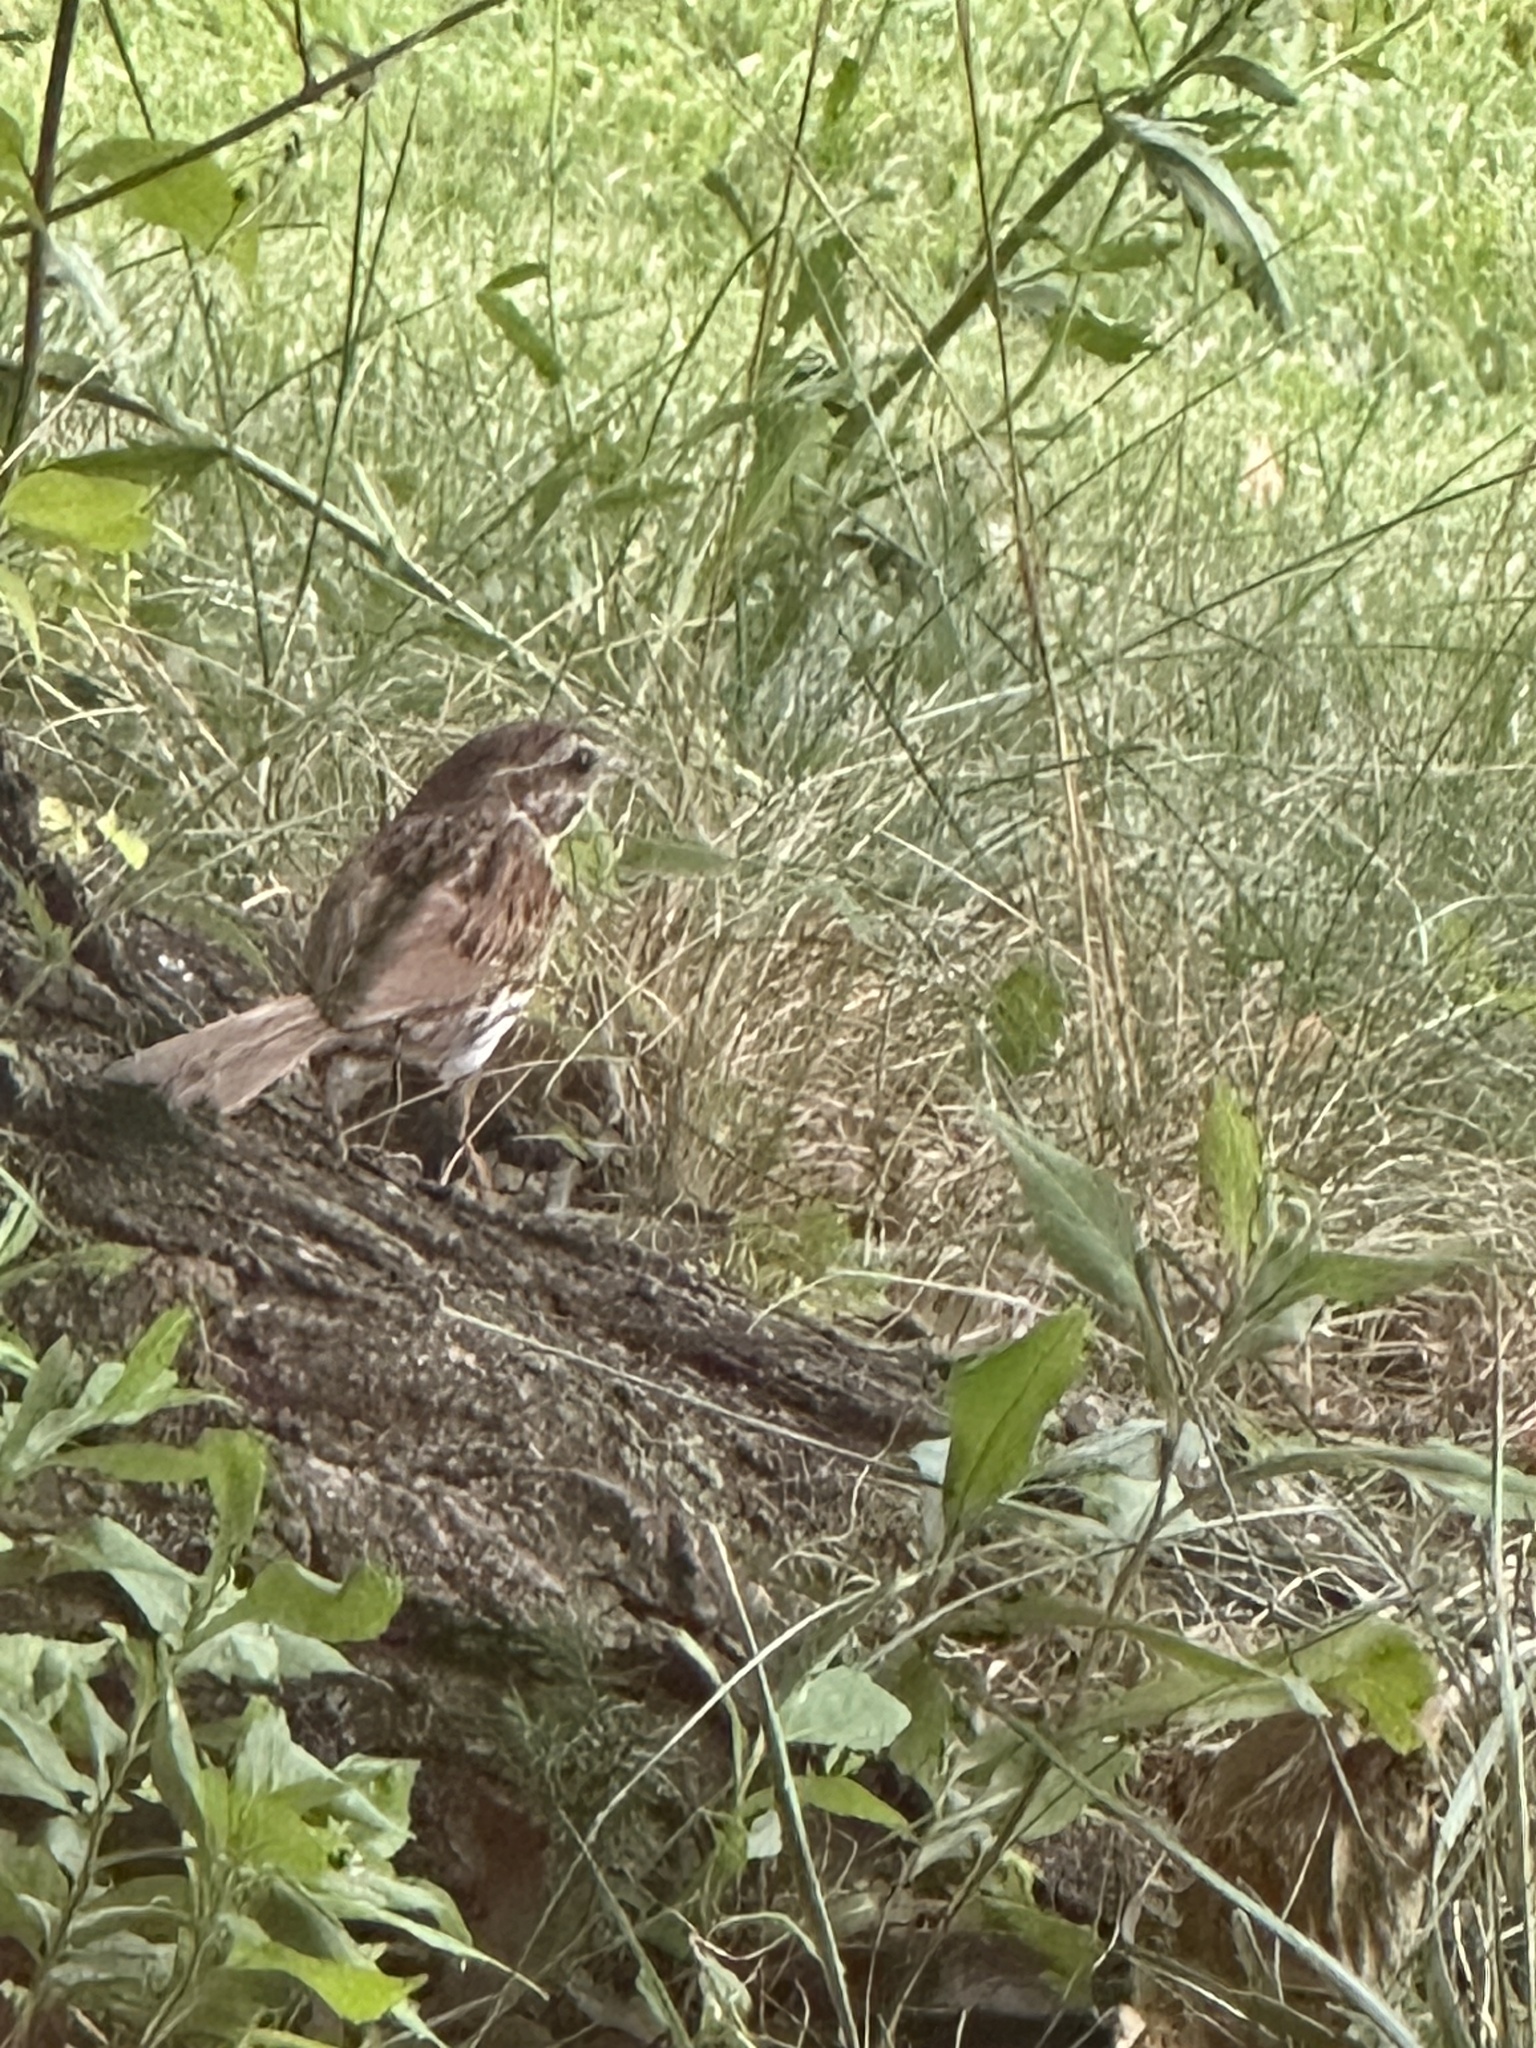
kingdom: Animalia
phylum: Chordata
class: Aves
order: Passeriformes
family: Passerellidae
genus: Melospiza
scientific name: Melospiza melodia
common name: Song sparrow
